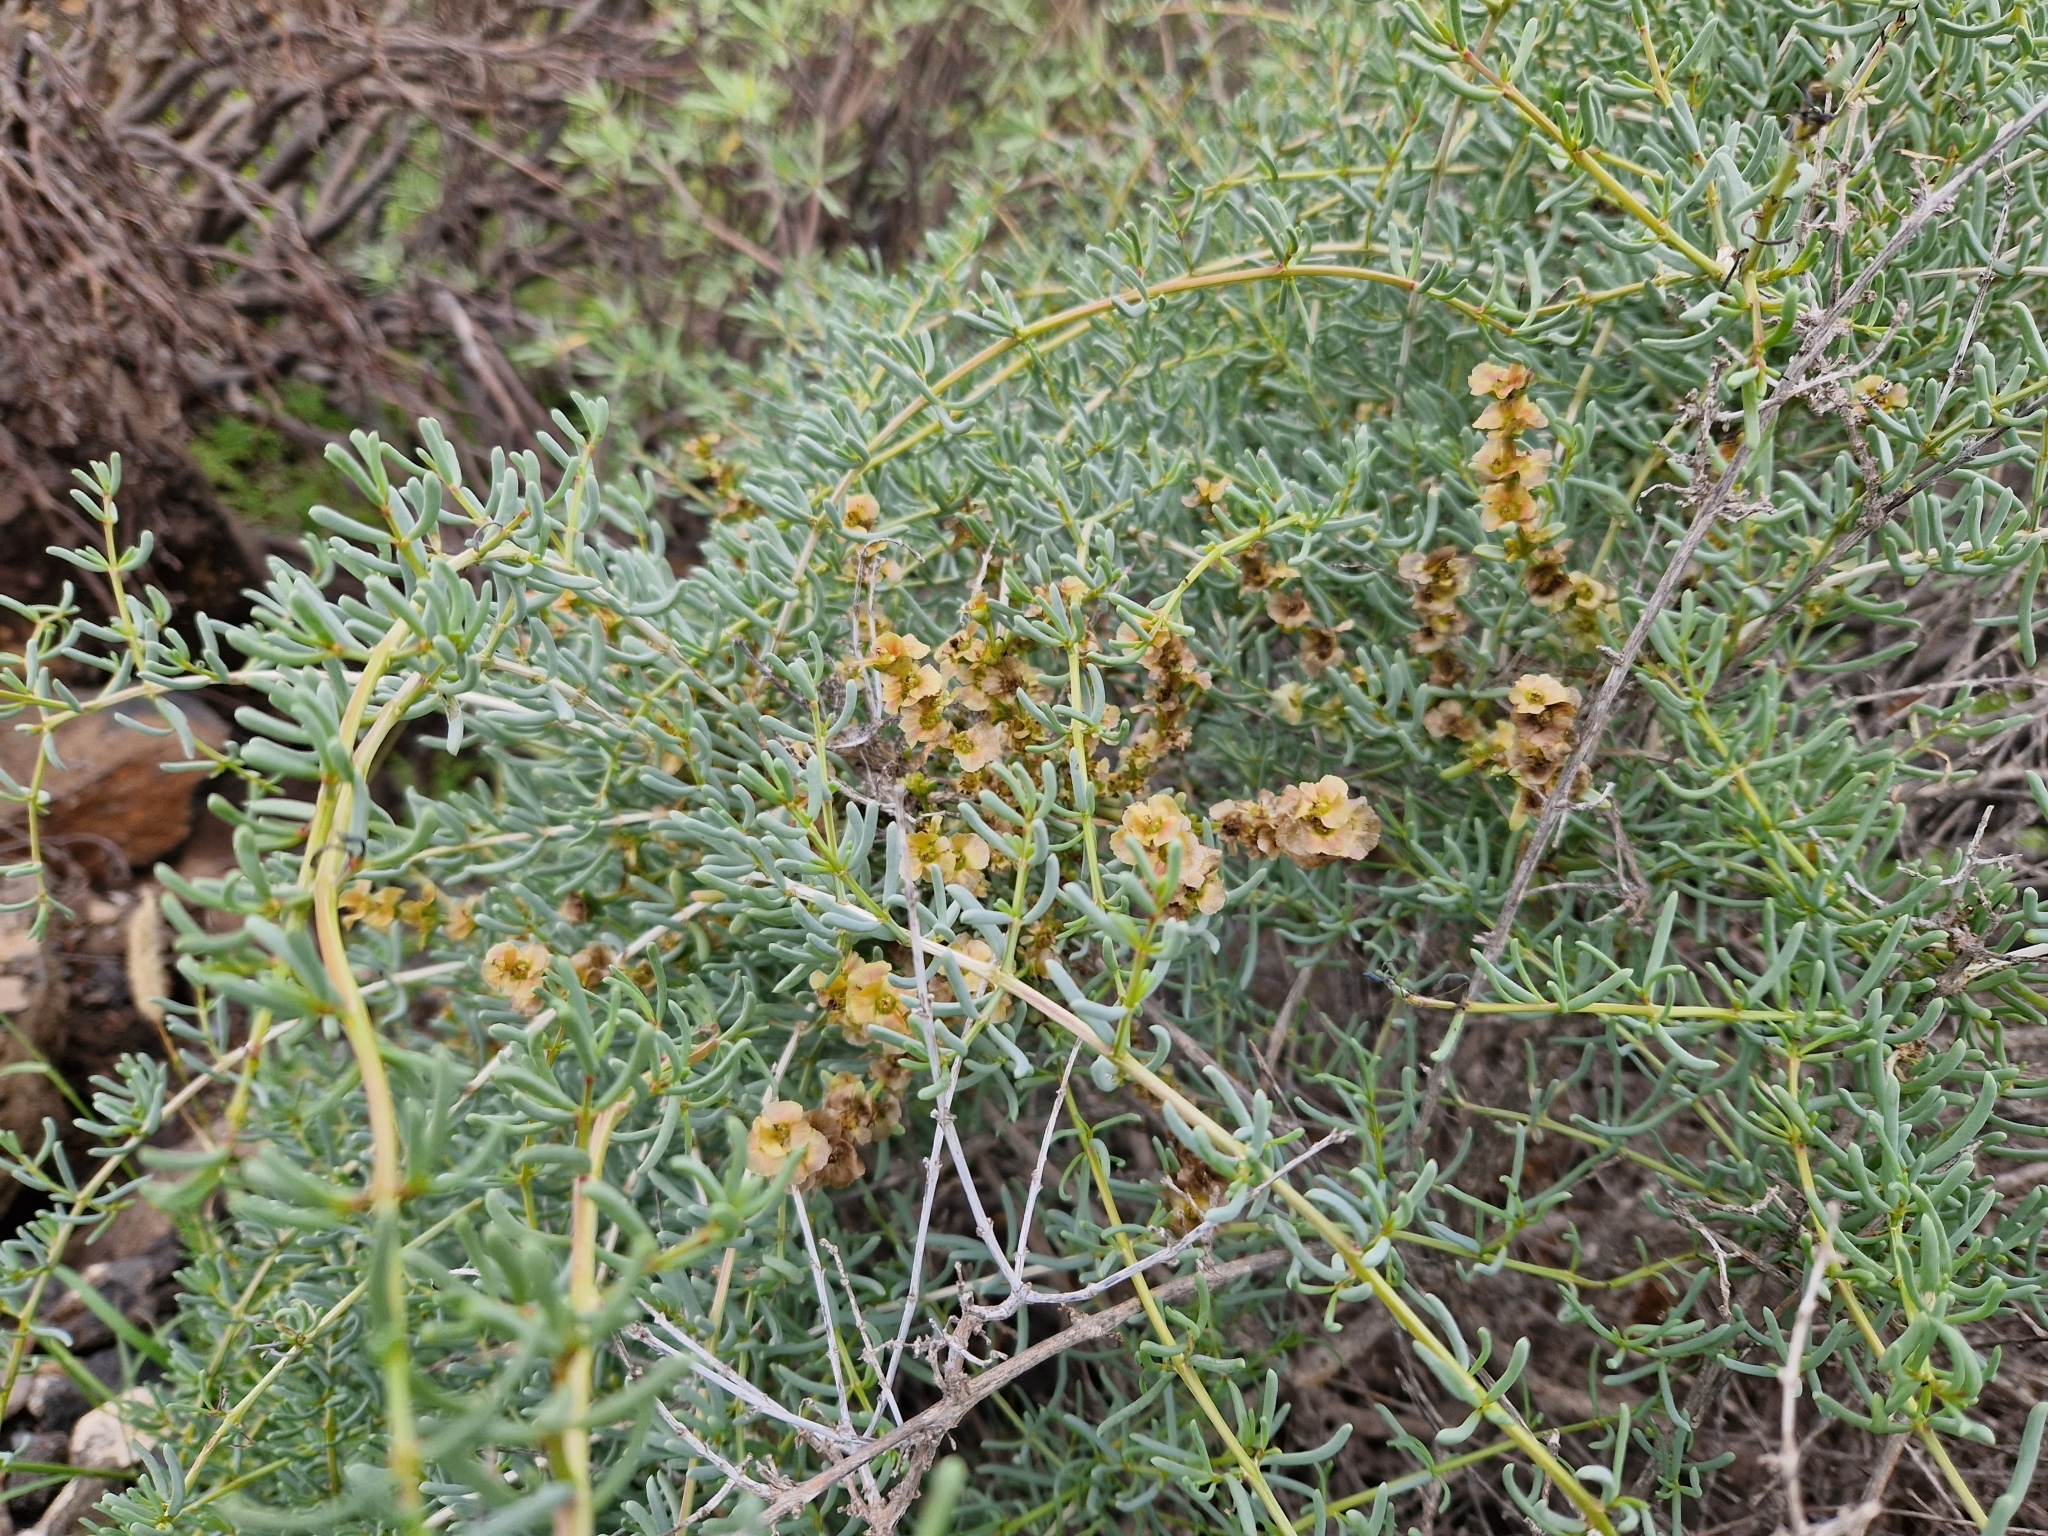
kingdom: Plantae
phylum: Tracheophyta
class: Magnoliopsida
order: Caryophyllales
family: Amaranthaceae
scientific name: Amaranthaceae
